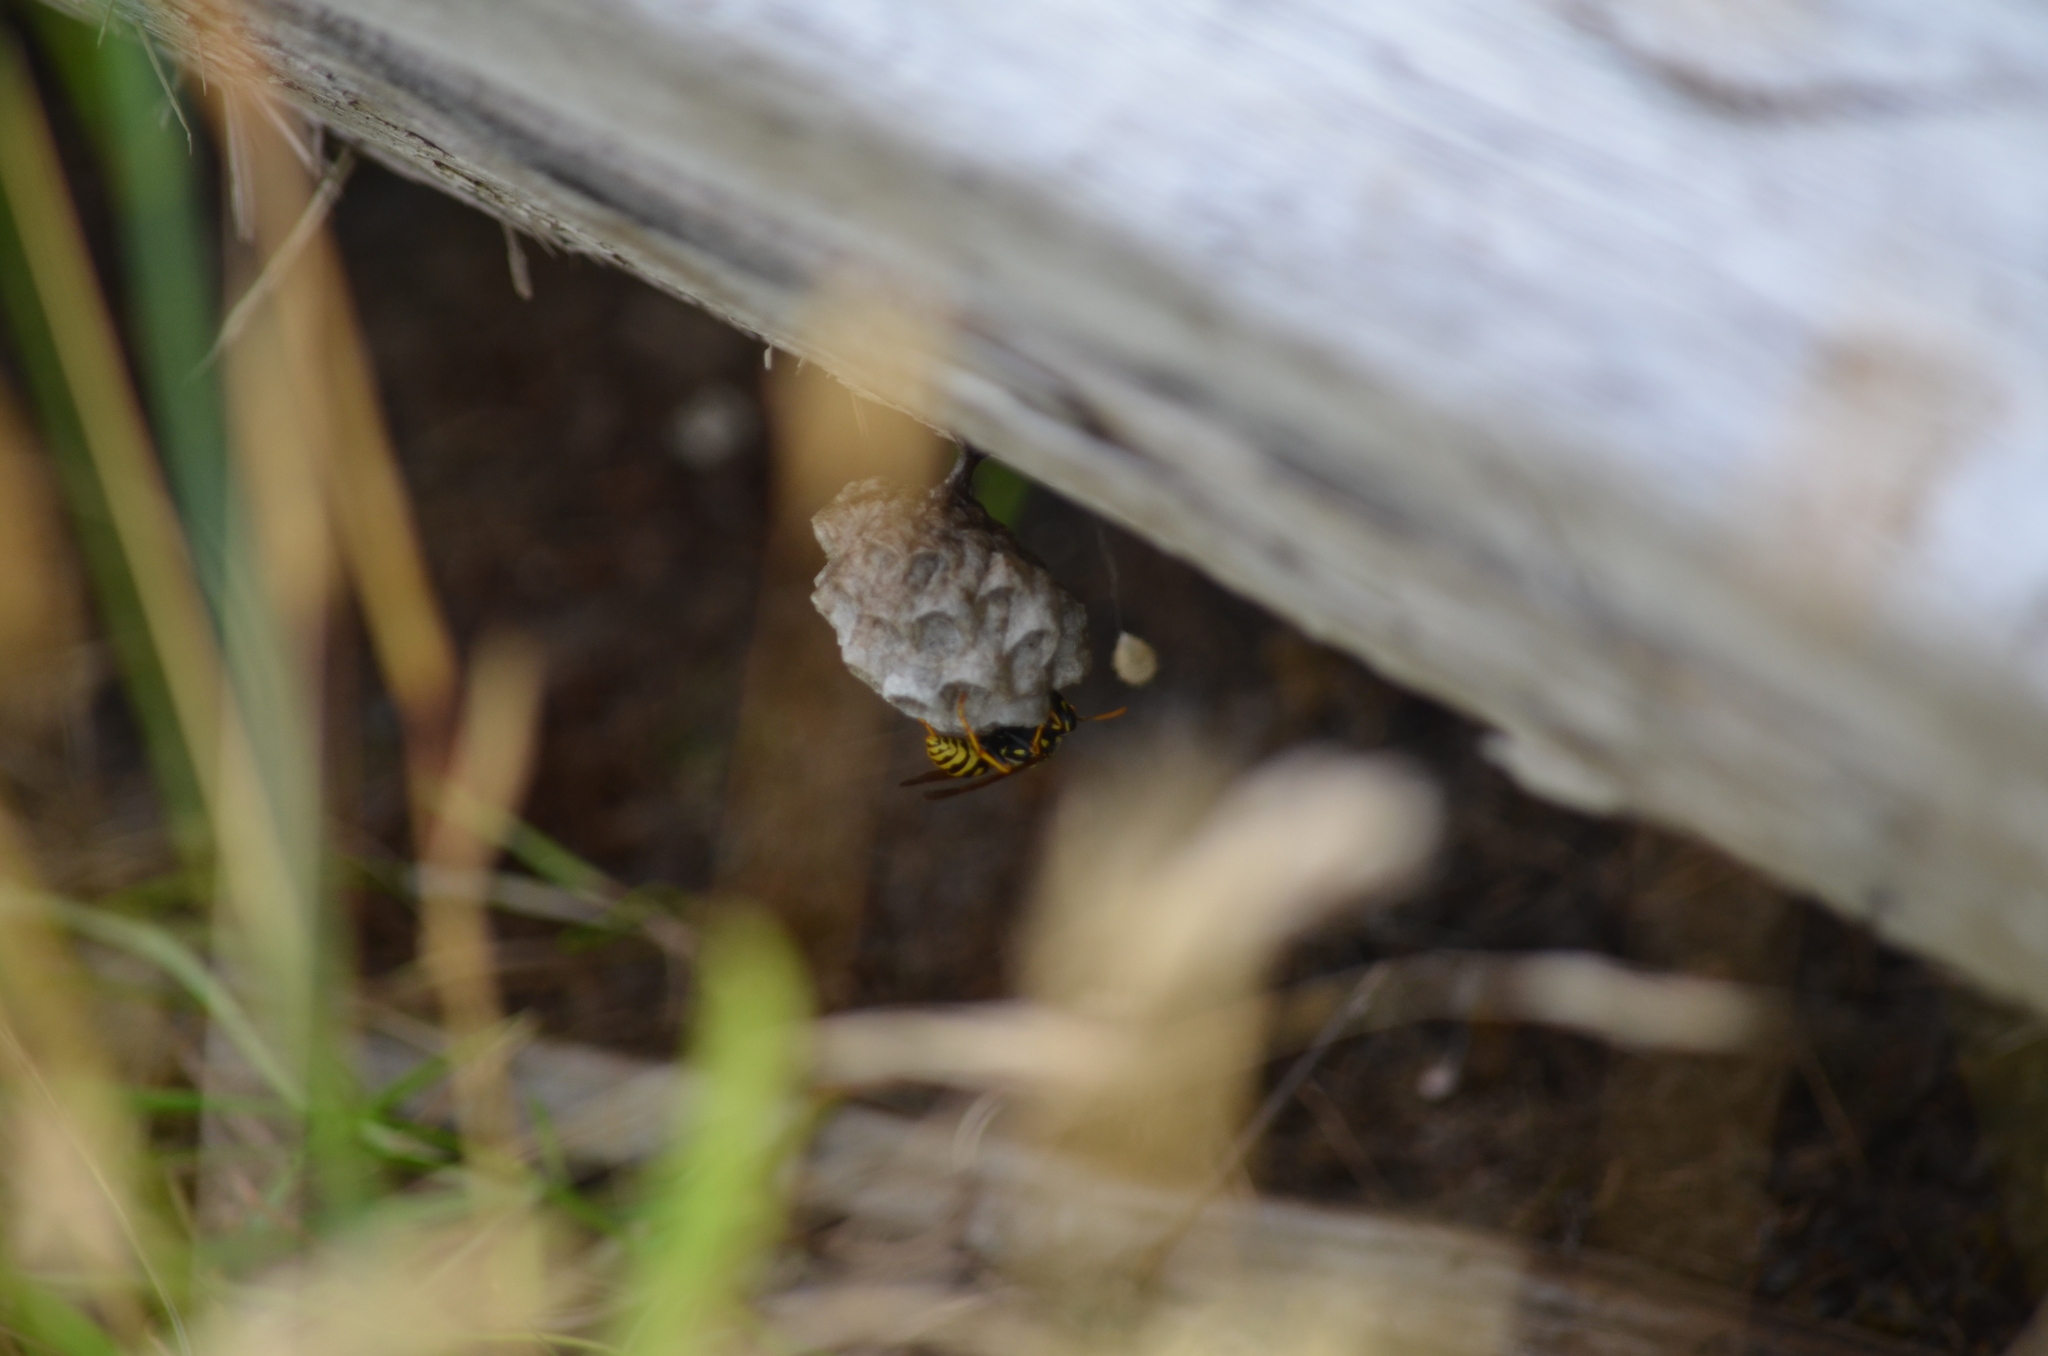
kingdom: Animalia
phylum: Arthropoda
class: Insecta
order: Hymenoptera
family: Eumenidae
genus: Polistes
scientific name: Polistes dominula
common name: Paper wasp
